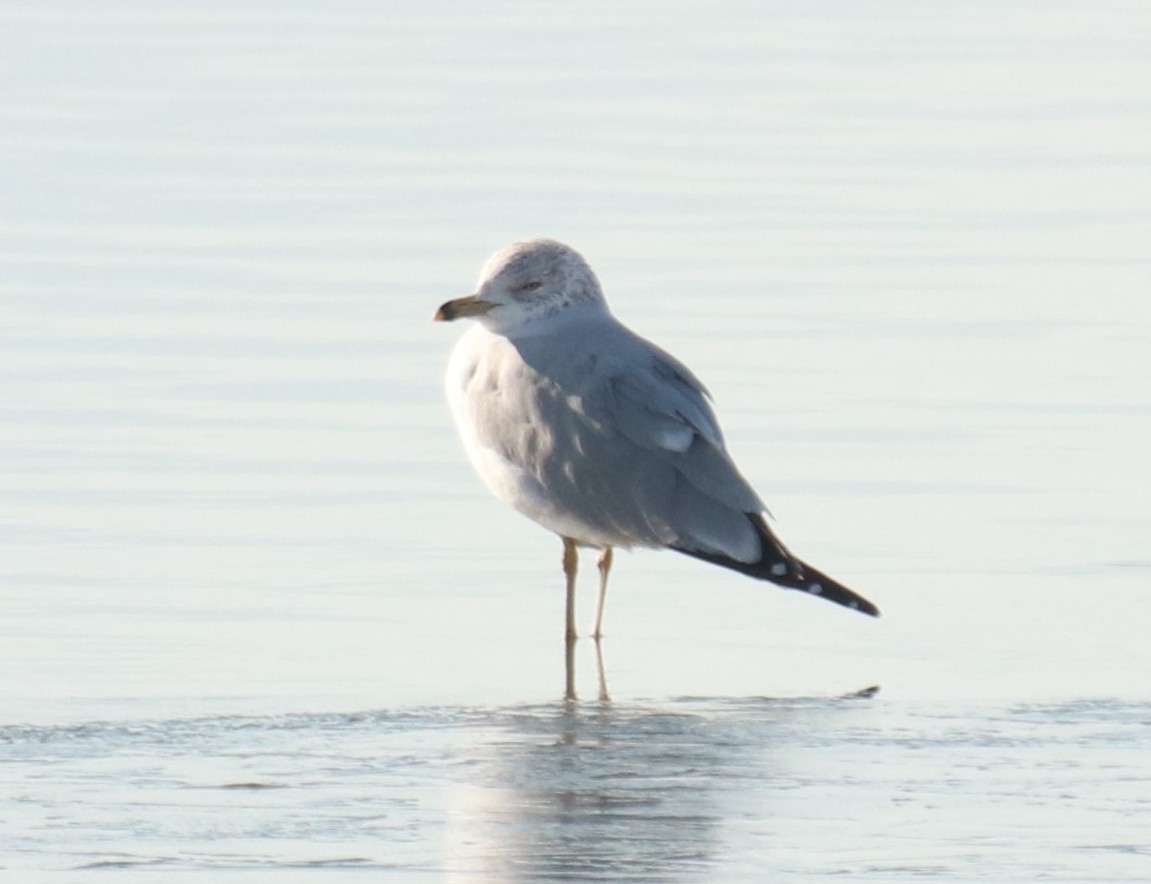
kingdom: Animalia
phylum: Chordata
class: Aves
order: Charadriiformes
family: Laridae
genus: Larus
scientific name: Larus delawarensis
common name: Ring-billed gull
